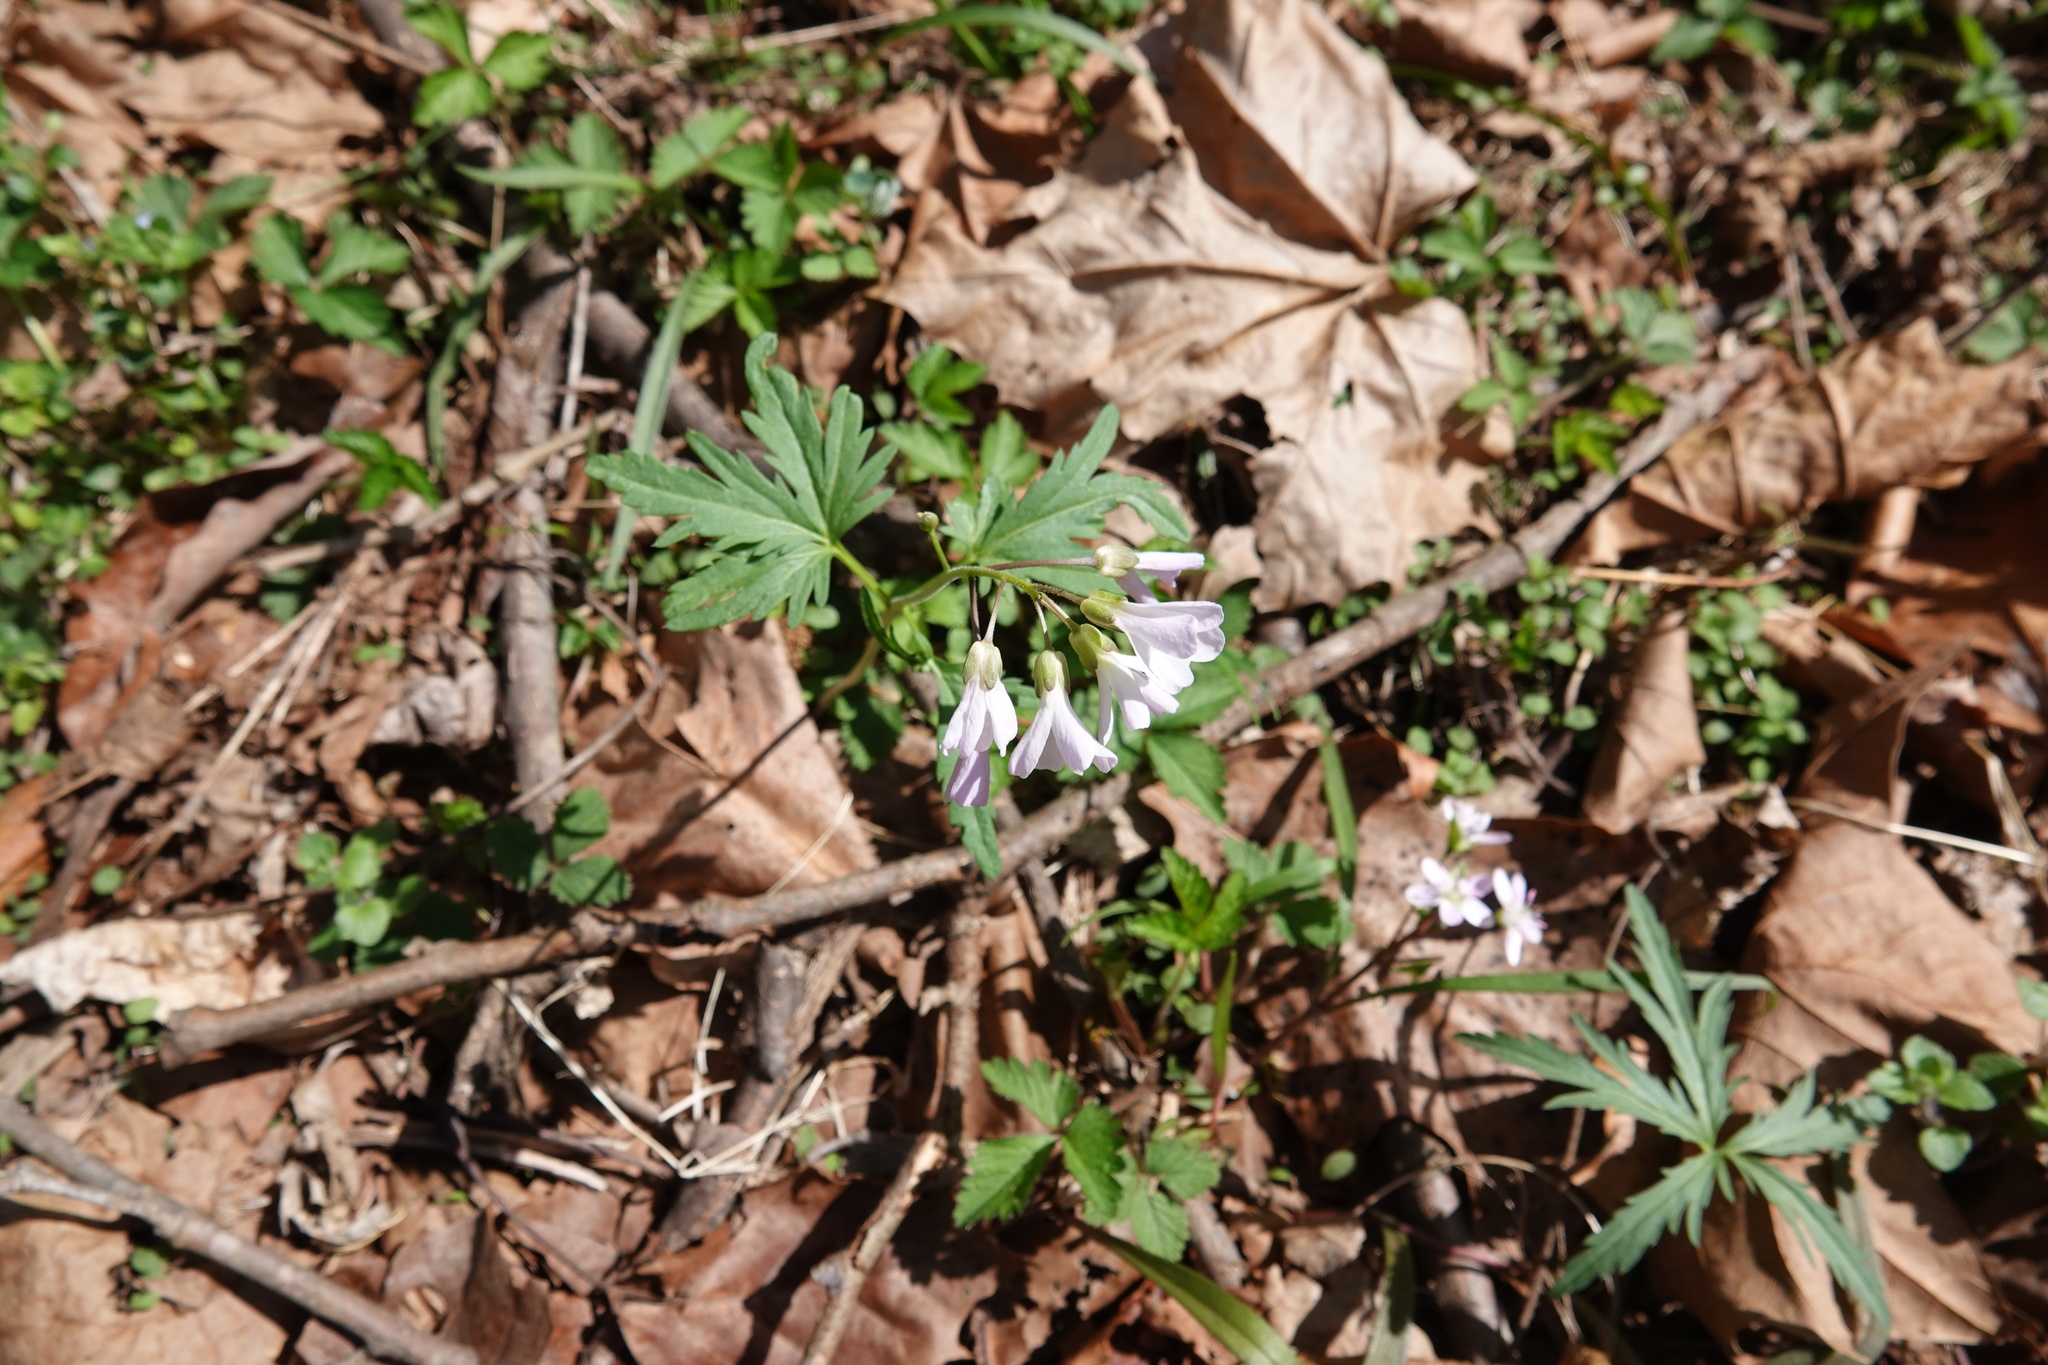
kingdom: Plantae
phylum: Tracheophyta
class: Magnoliopsida
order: Brassicales
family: Brassicaceae
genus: Cardamine
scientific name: Cardamine concatenata
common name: Cut-leaf toothcup
